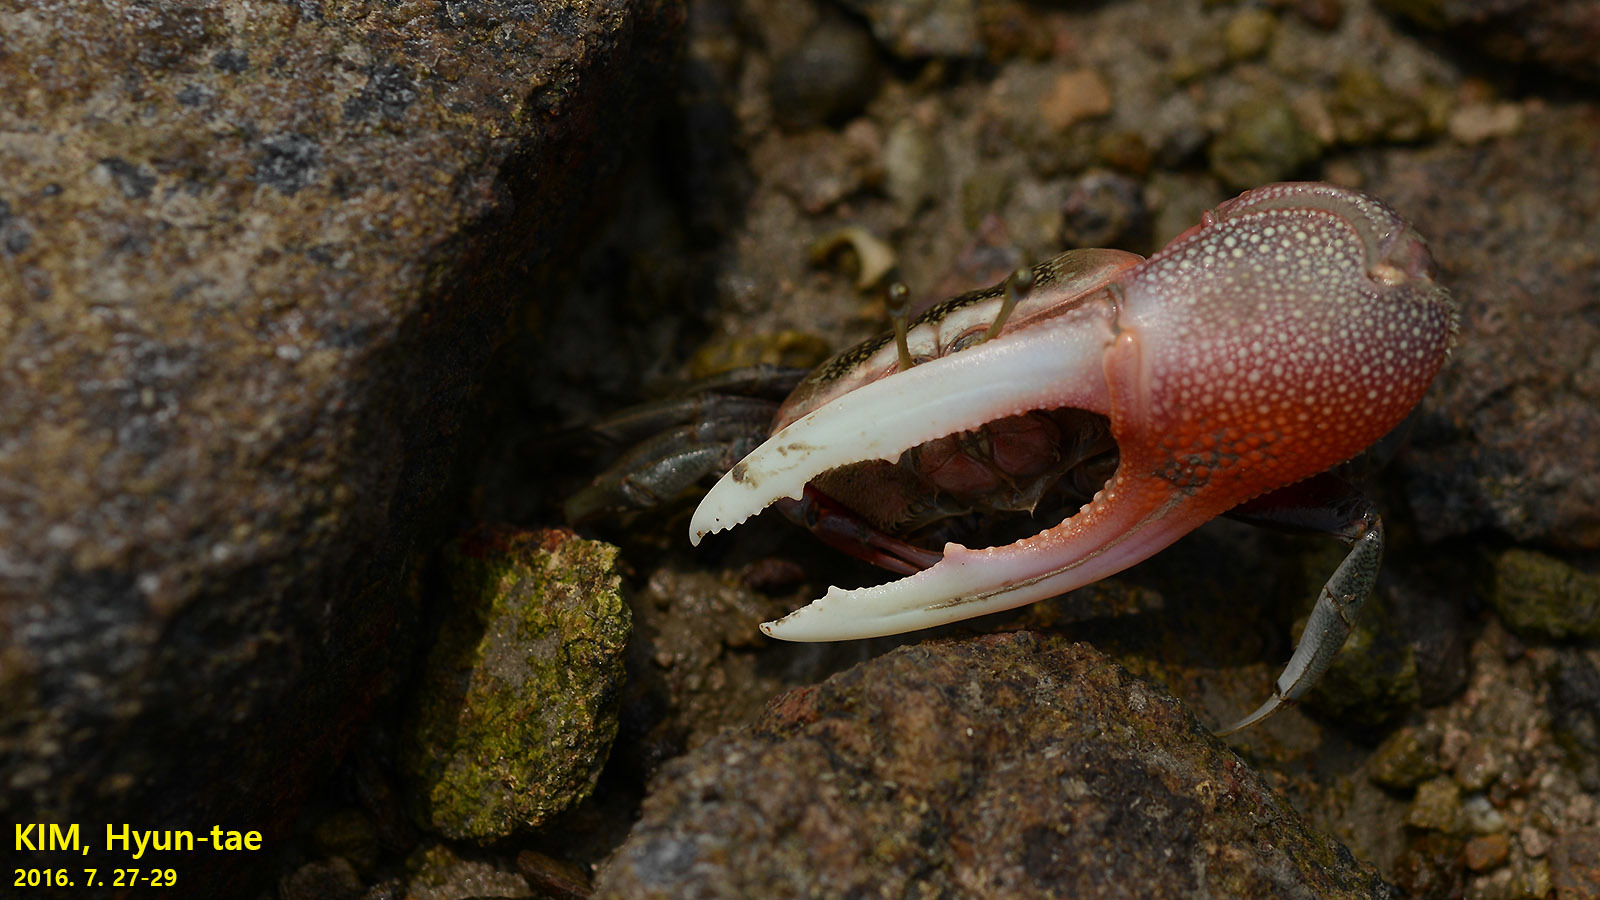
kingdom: Animalia
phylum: Arthropoda
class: Malacostraca
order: Decapoda
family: Ocypodidae
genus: Tubuca
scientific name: Tubuca arcuata
